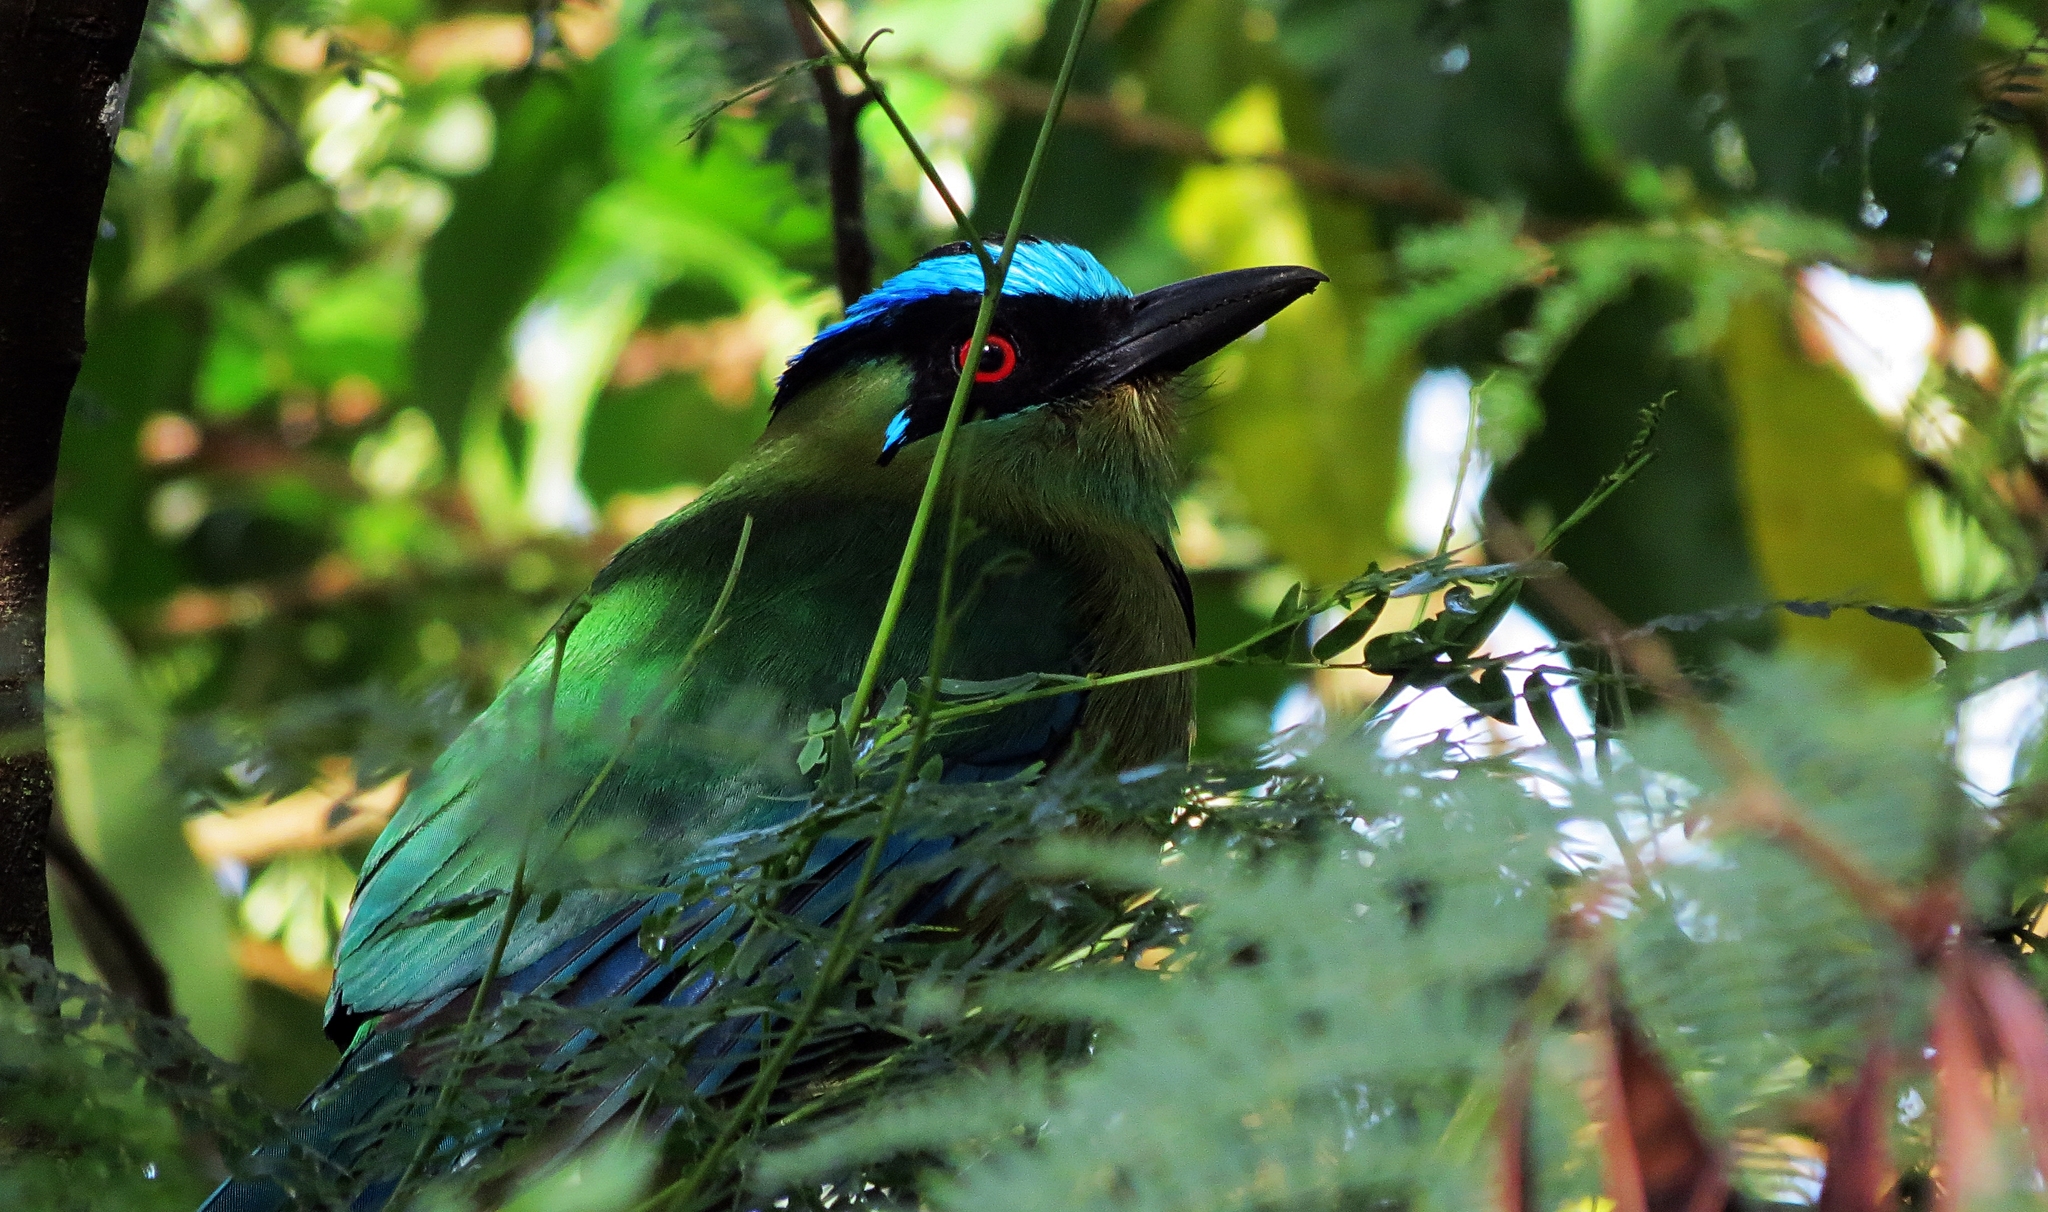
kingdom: Animalia
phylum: Chordata
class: Aves
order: Coraciiformes
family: Momotidae
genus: Momotus
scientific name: Momotus aequatorialis
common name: Andean motmot
